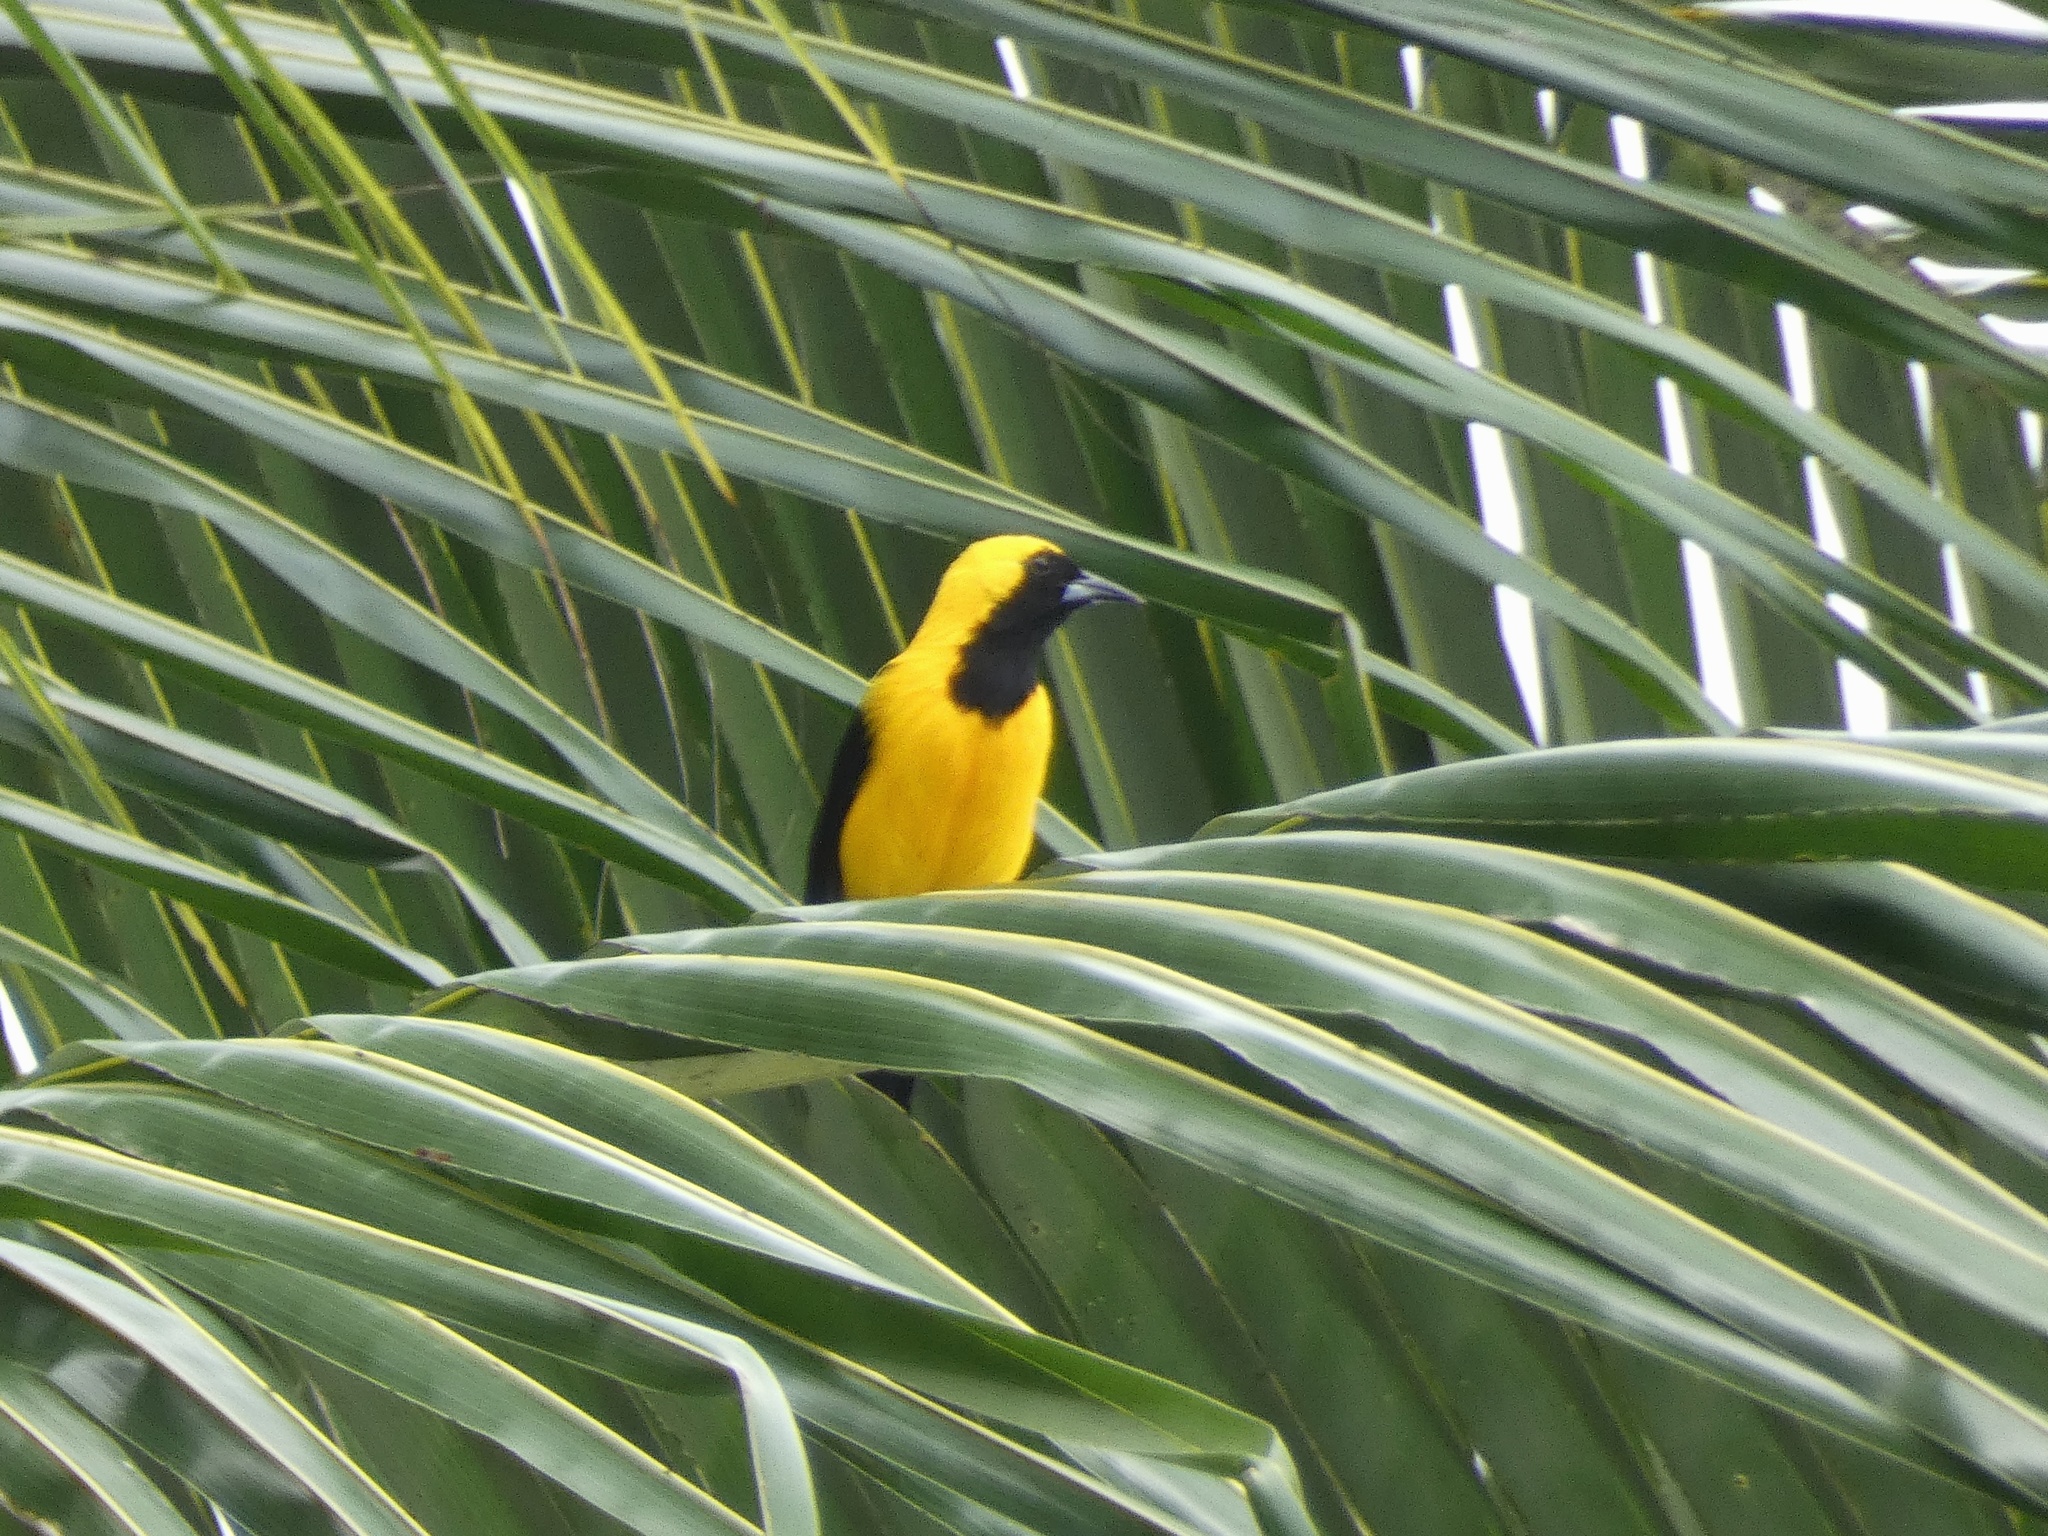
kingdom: Animalia
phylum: Chordata
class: Aves
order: Passeriformes
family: Icteridae
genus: Icterus
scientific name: Icterus chrysater
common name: Yellow-backed oriole
